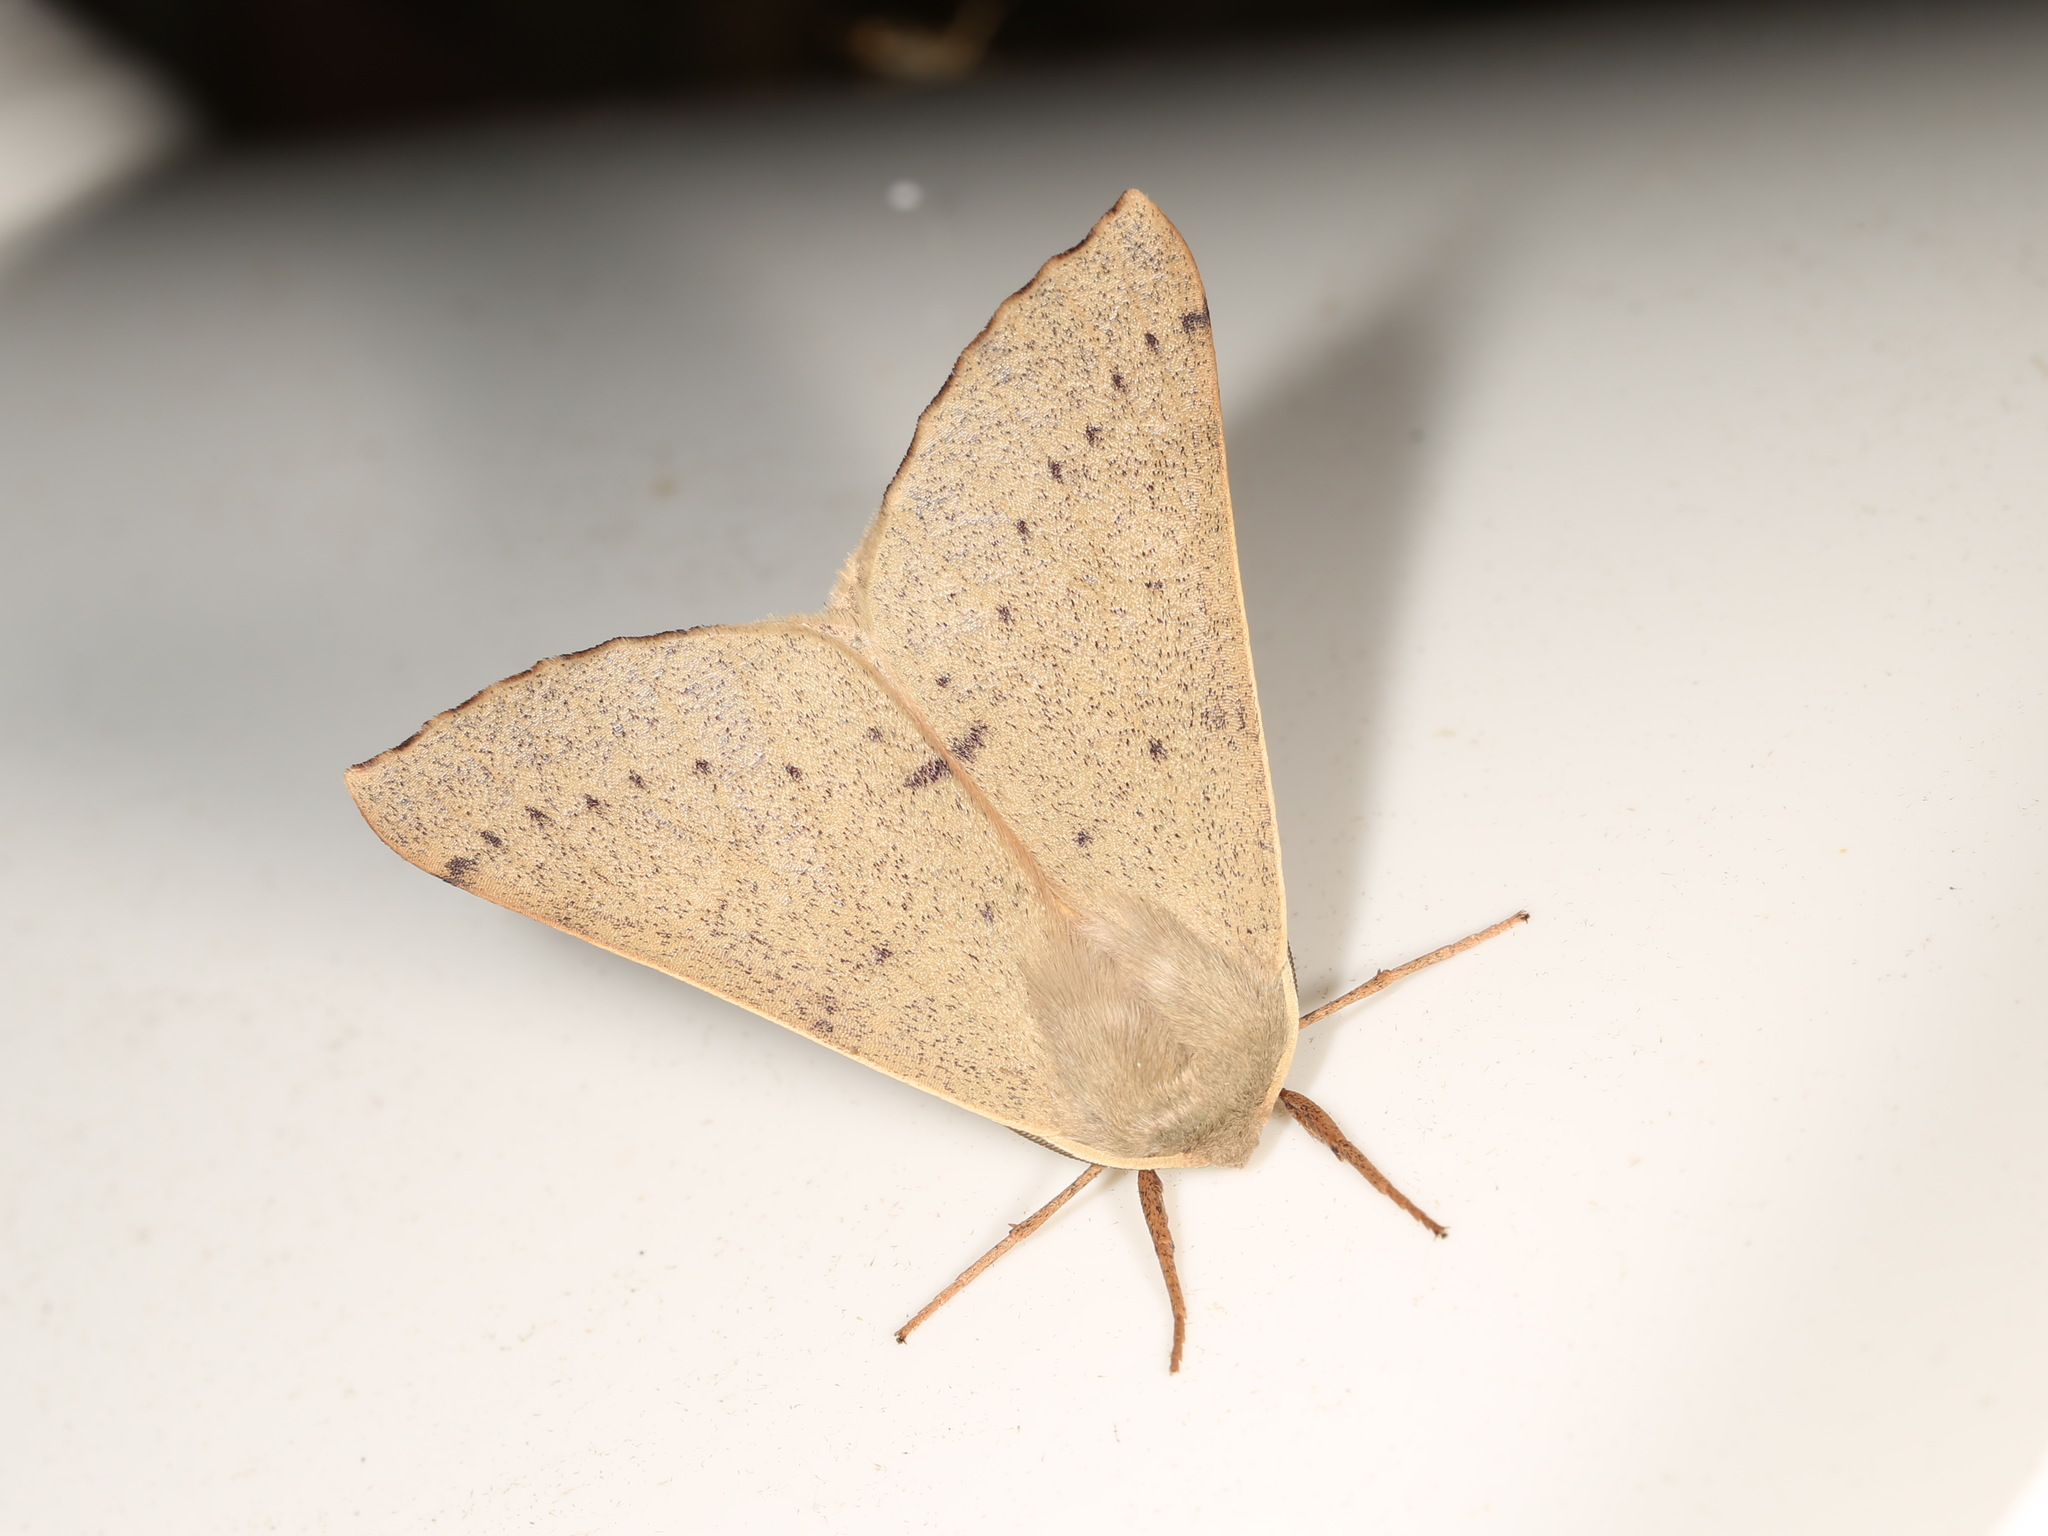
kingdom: Animalia
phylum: Arthropoda
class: Insecta
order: Lepidoptera
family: Geometridae
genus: Arhodia
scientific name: Arhodia lasiocamparia
